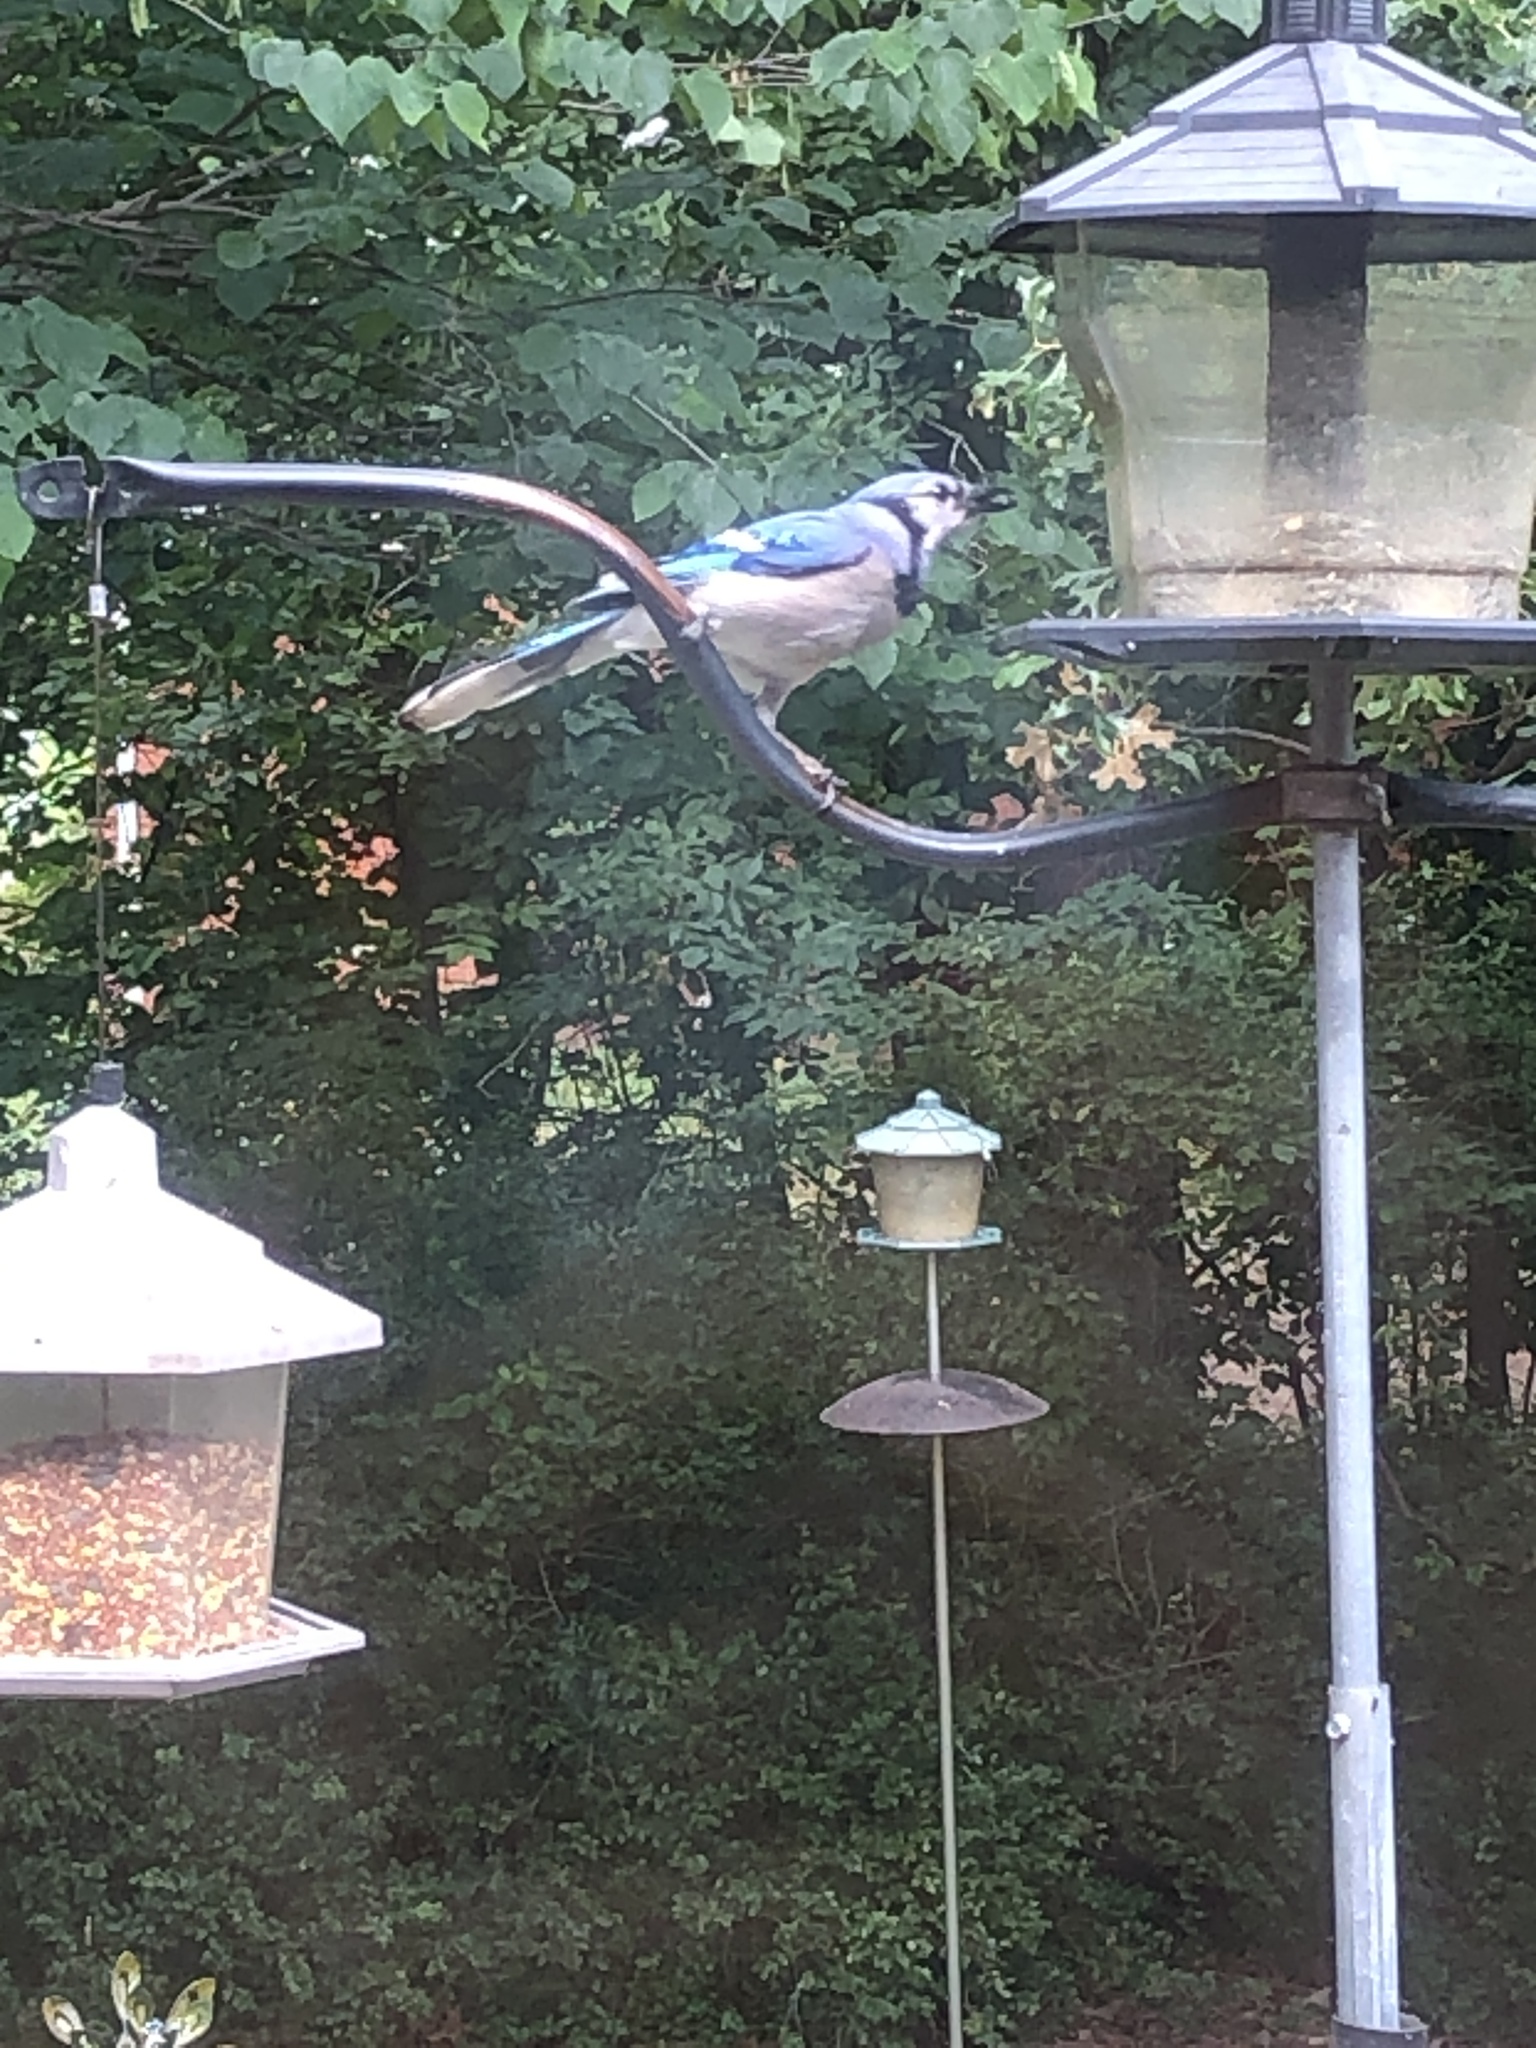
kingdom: Animalia
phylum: Chordata
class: Aves
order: Passeriformes
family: Corvidae
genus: Cyanocitta
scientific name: Cyanocitta cristata
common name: Blue jay
